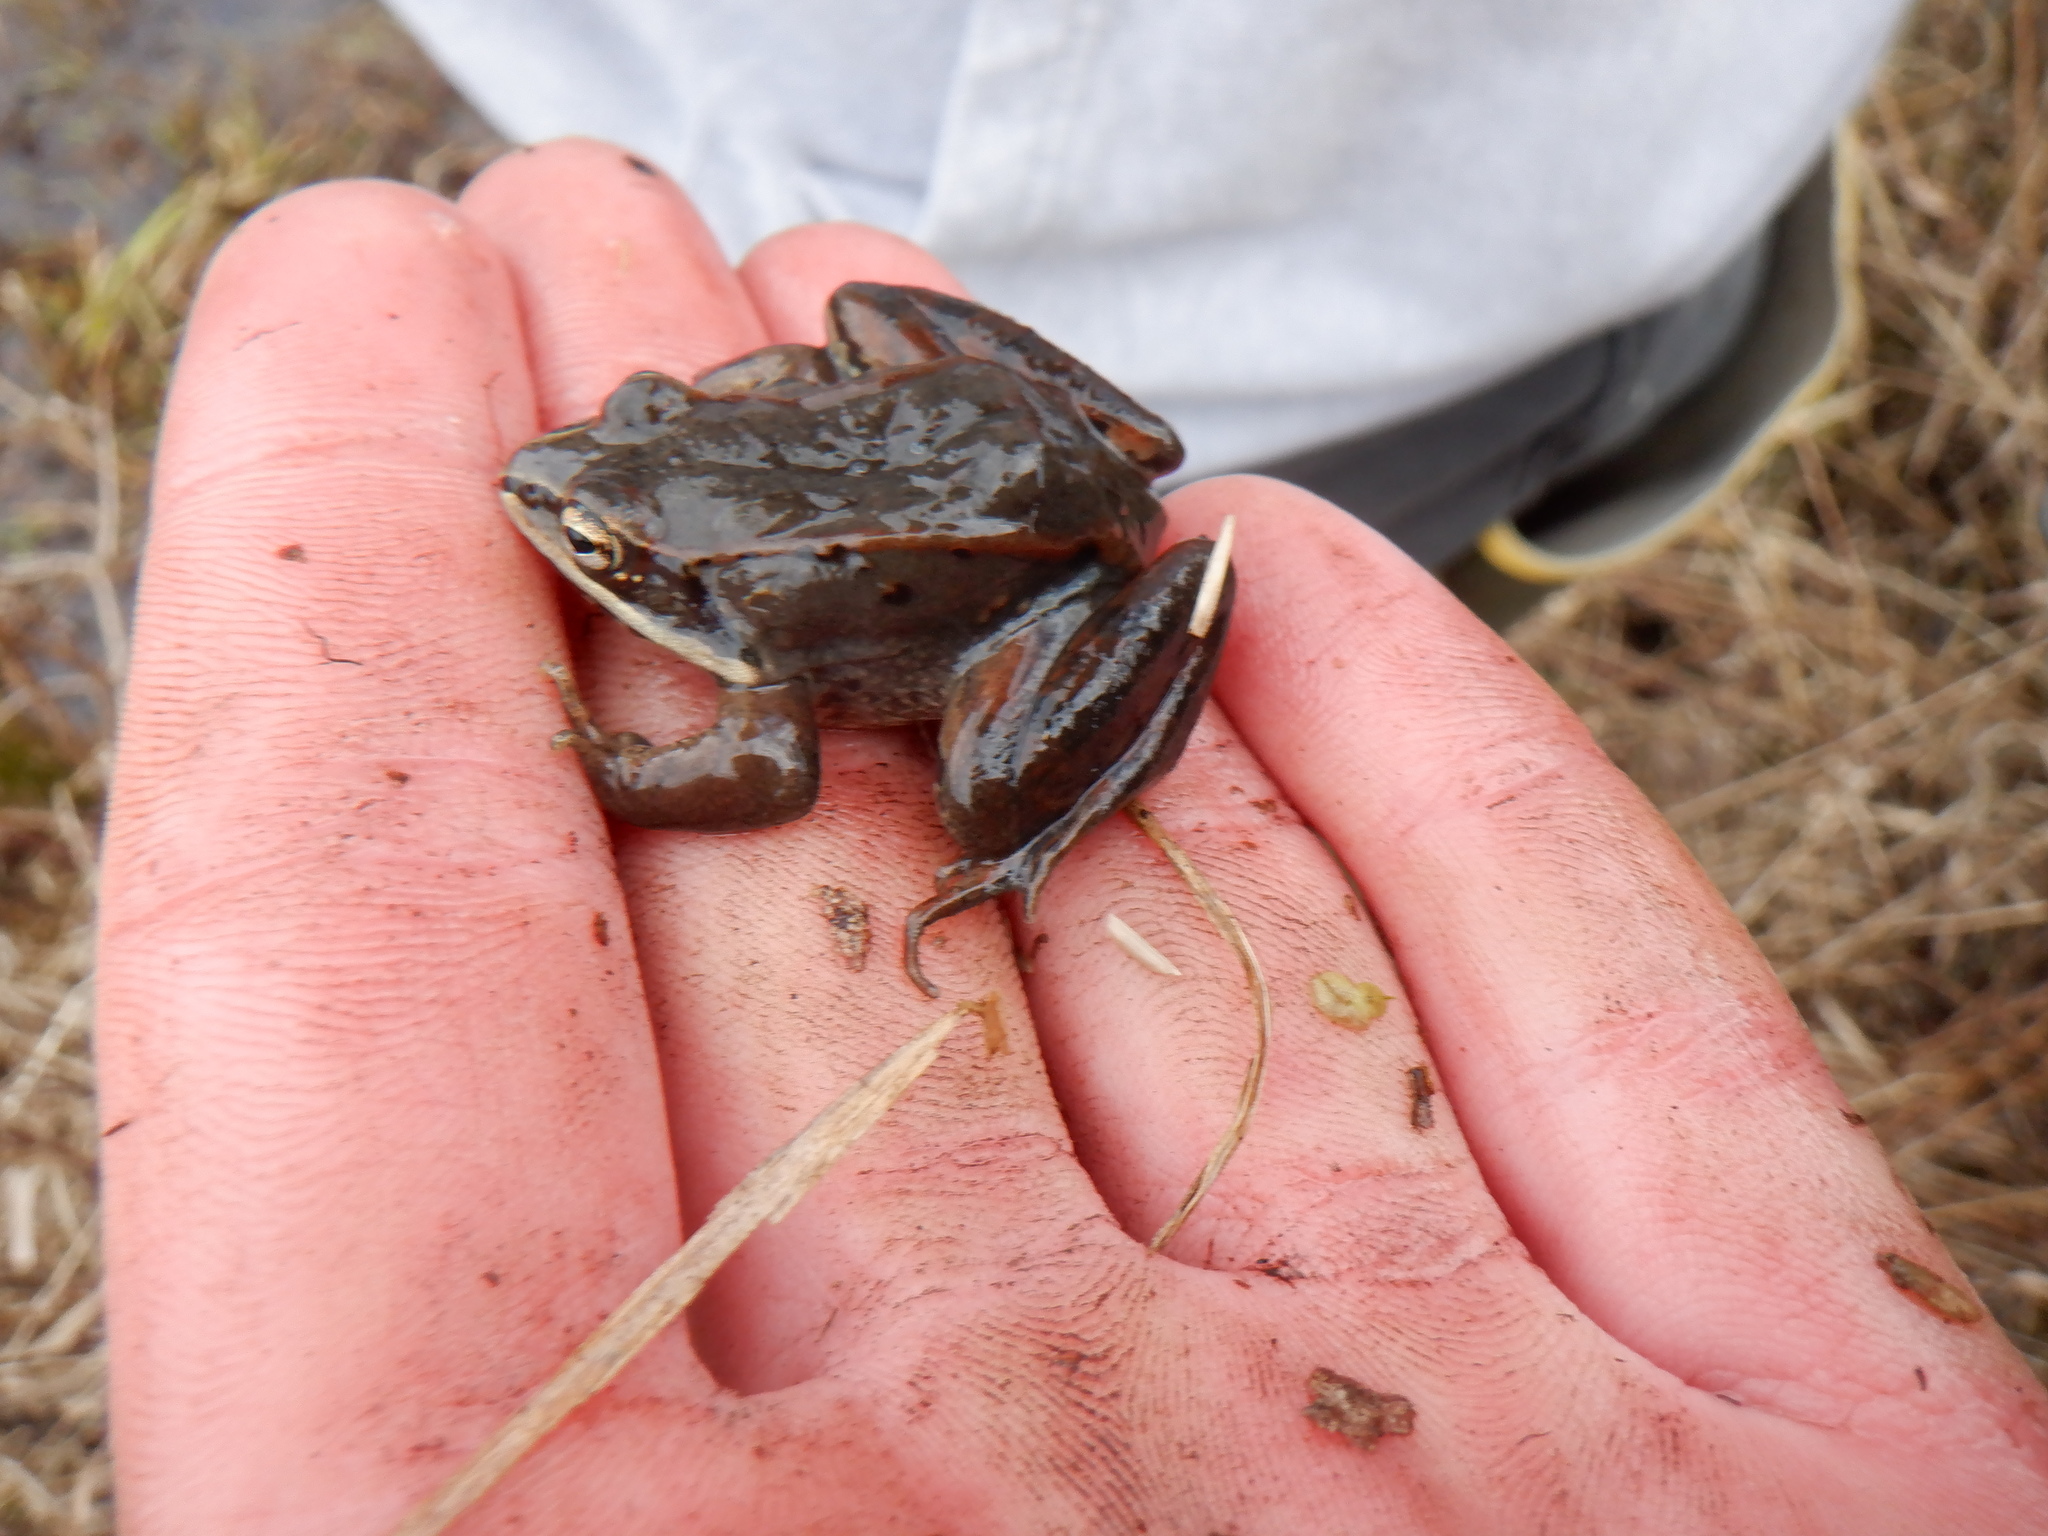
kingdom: Animalia
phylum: Chordata
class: Amphibia
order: Anura
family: Ranidae
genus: Lithobates
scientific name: Lithobates sylvaticus
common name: Wood frog
